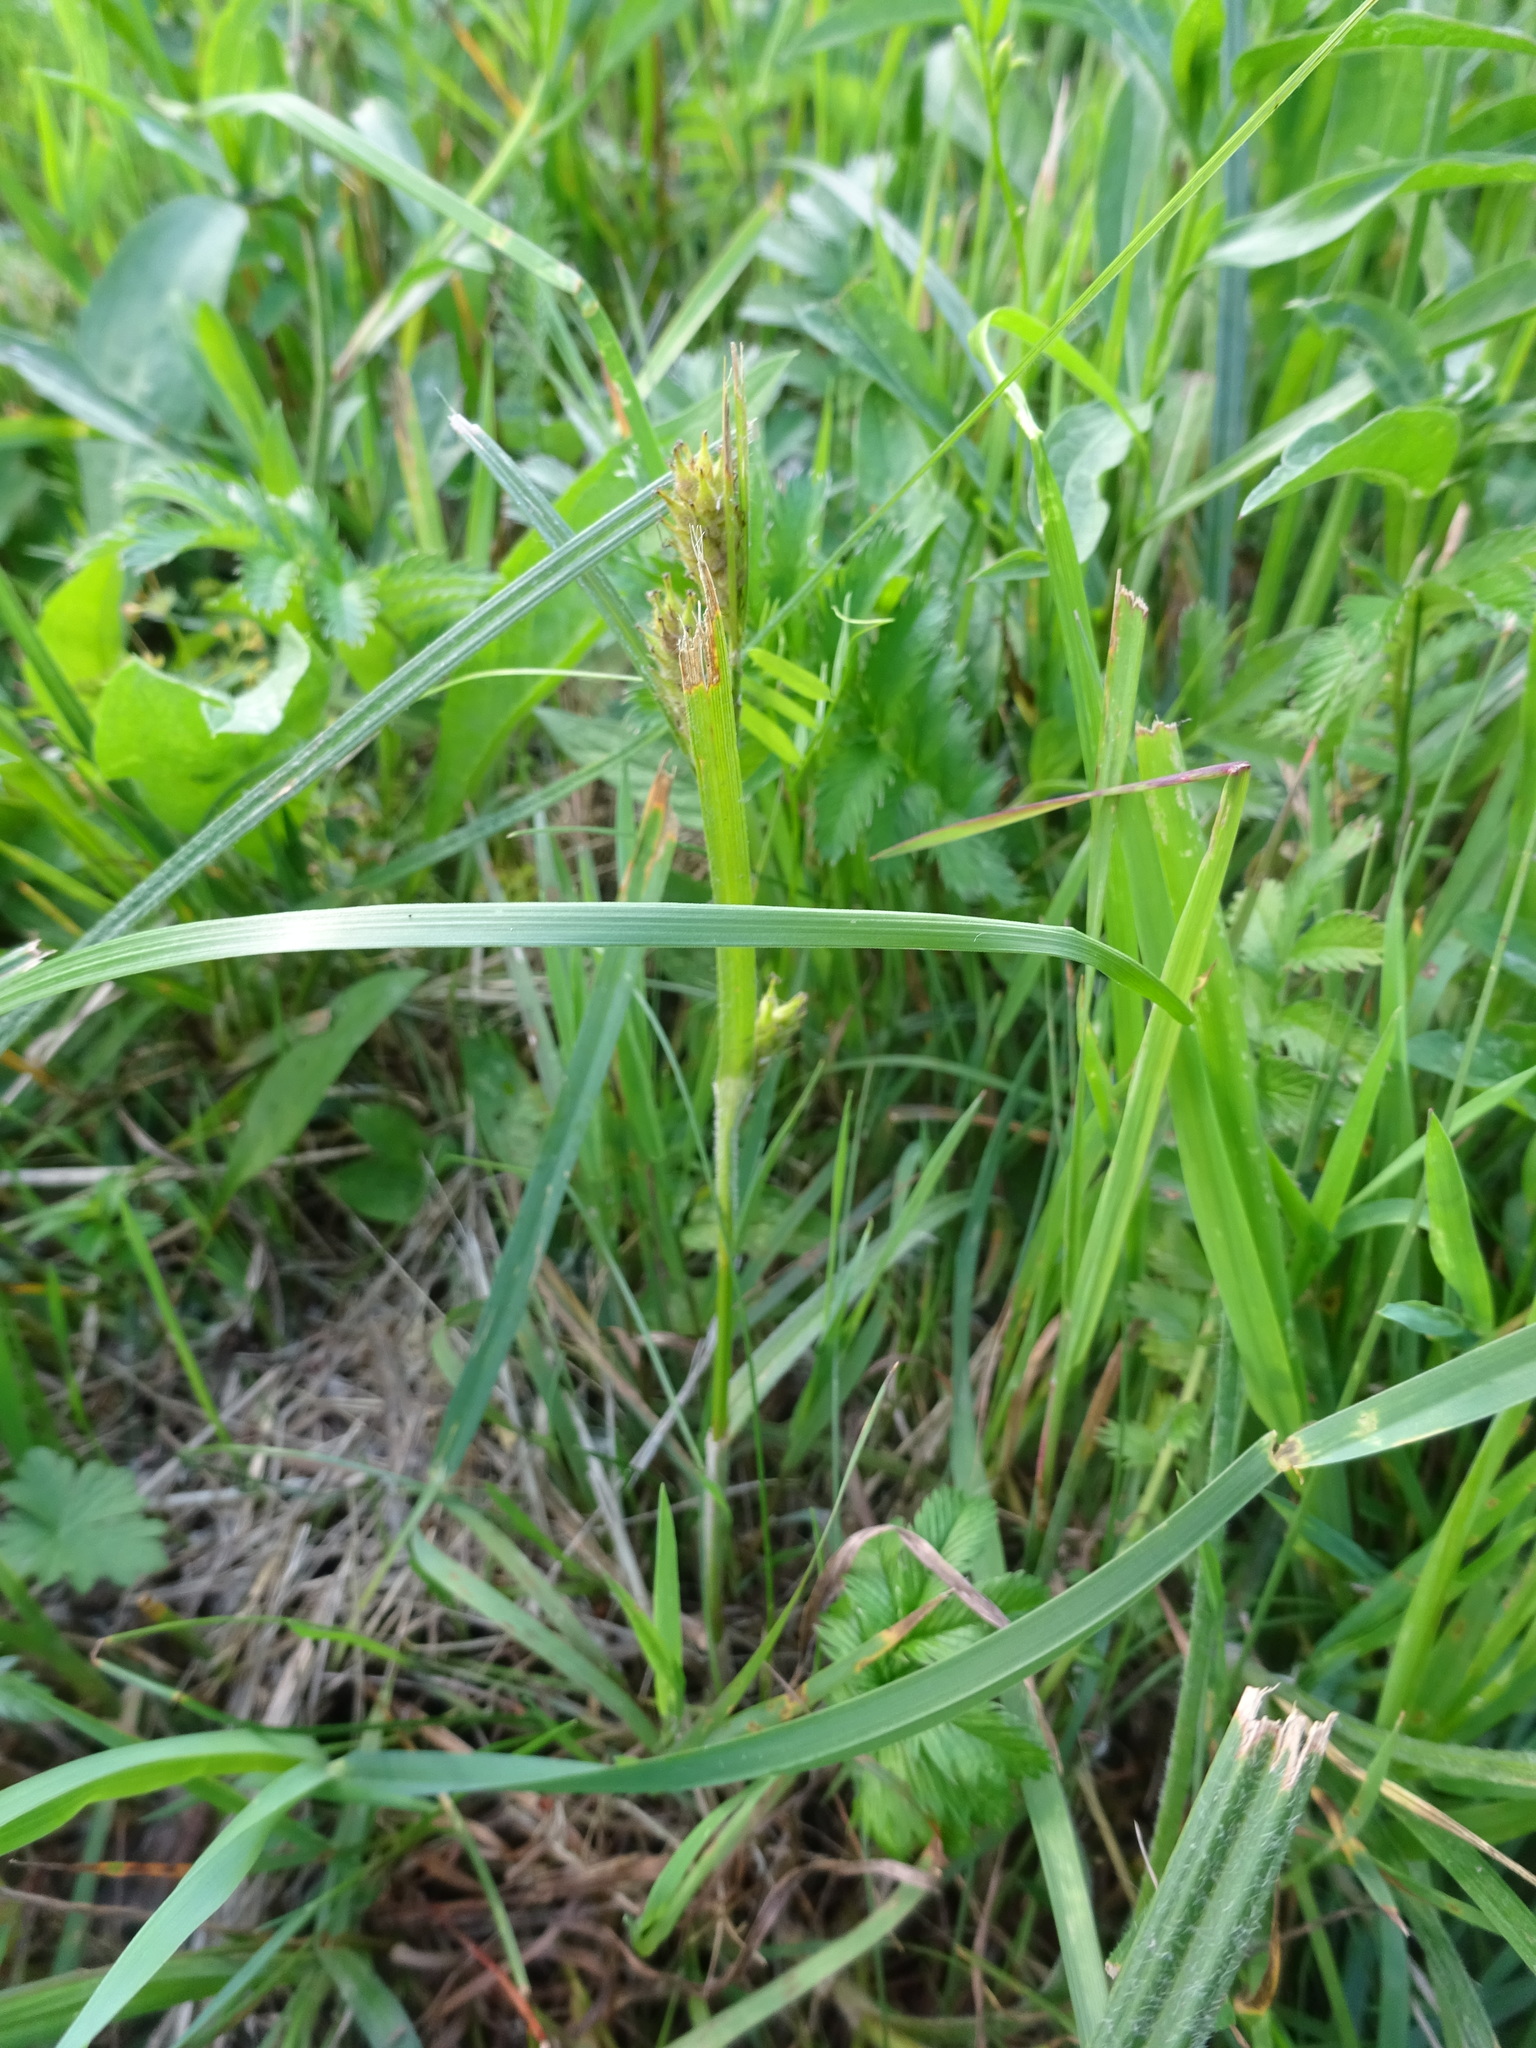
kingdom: Plantae
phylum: Tracheophyta
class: Liliopsida
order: Poales
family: Cyperaceae
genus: Carex
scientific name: Carex hirta
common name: Hairy sedge
